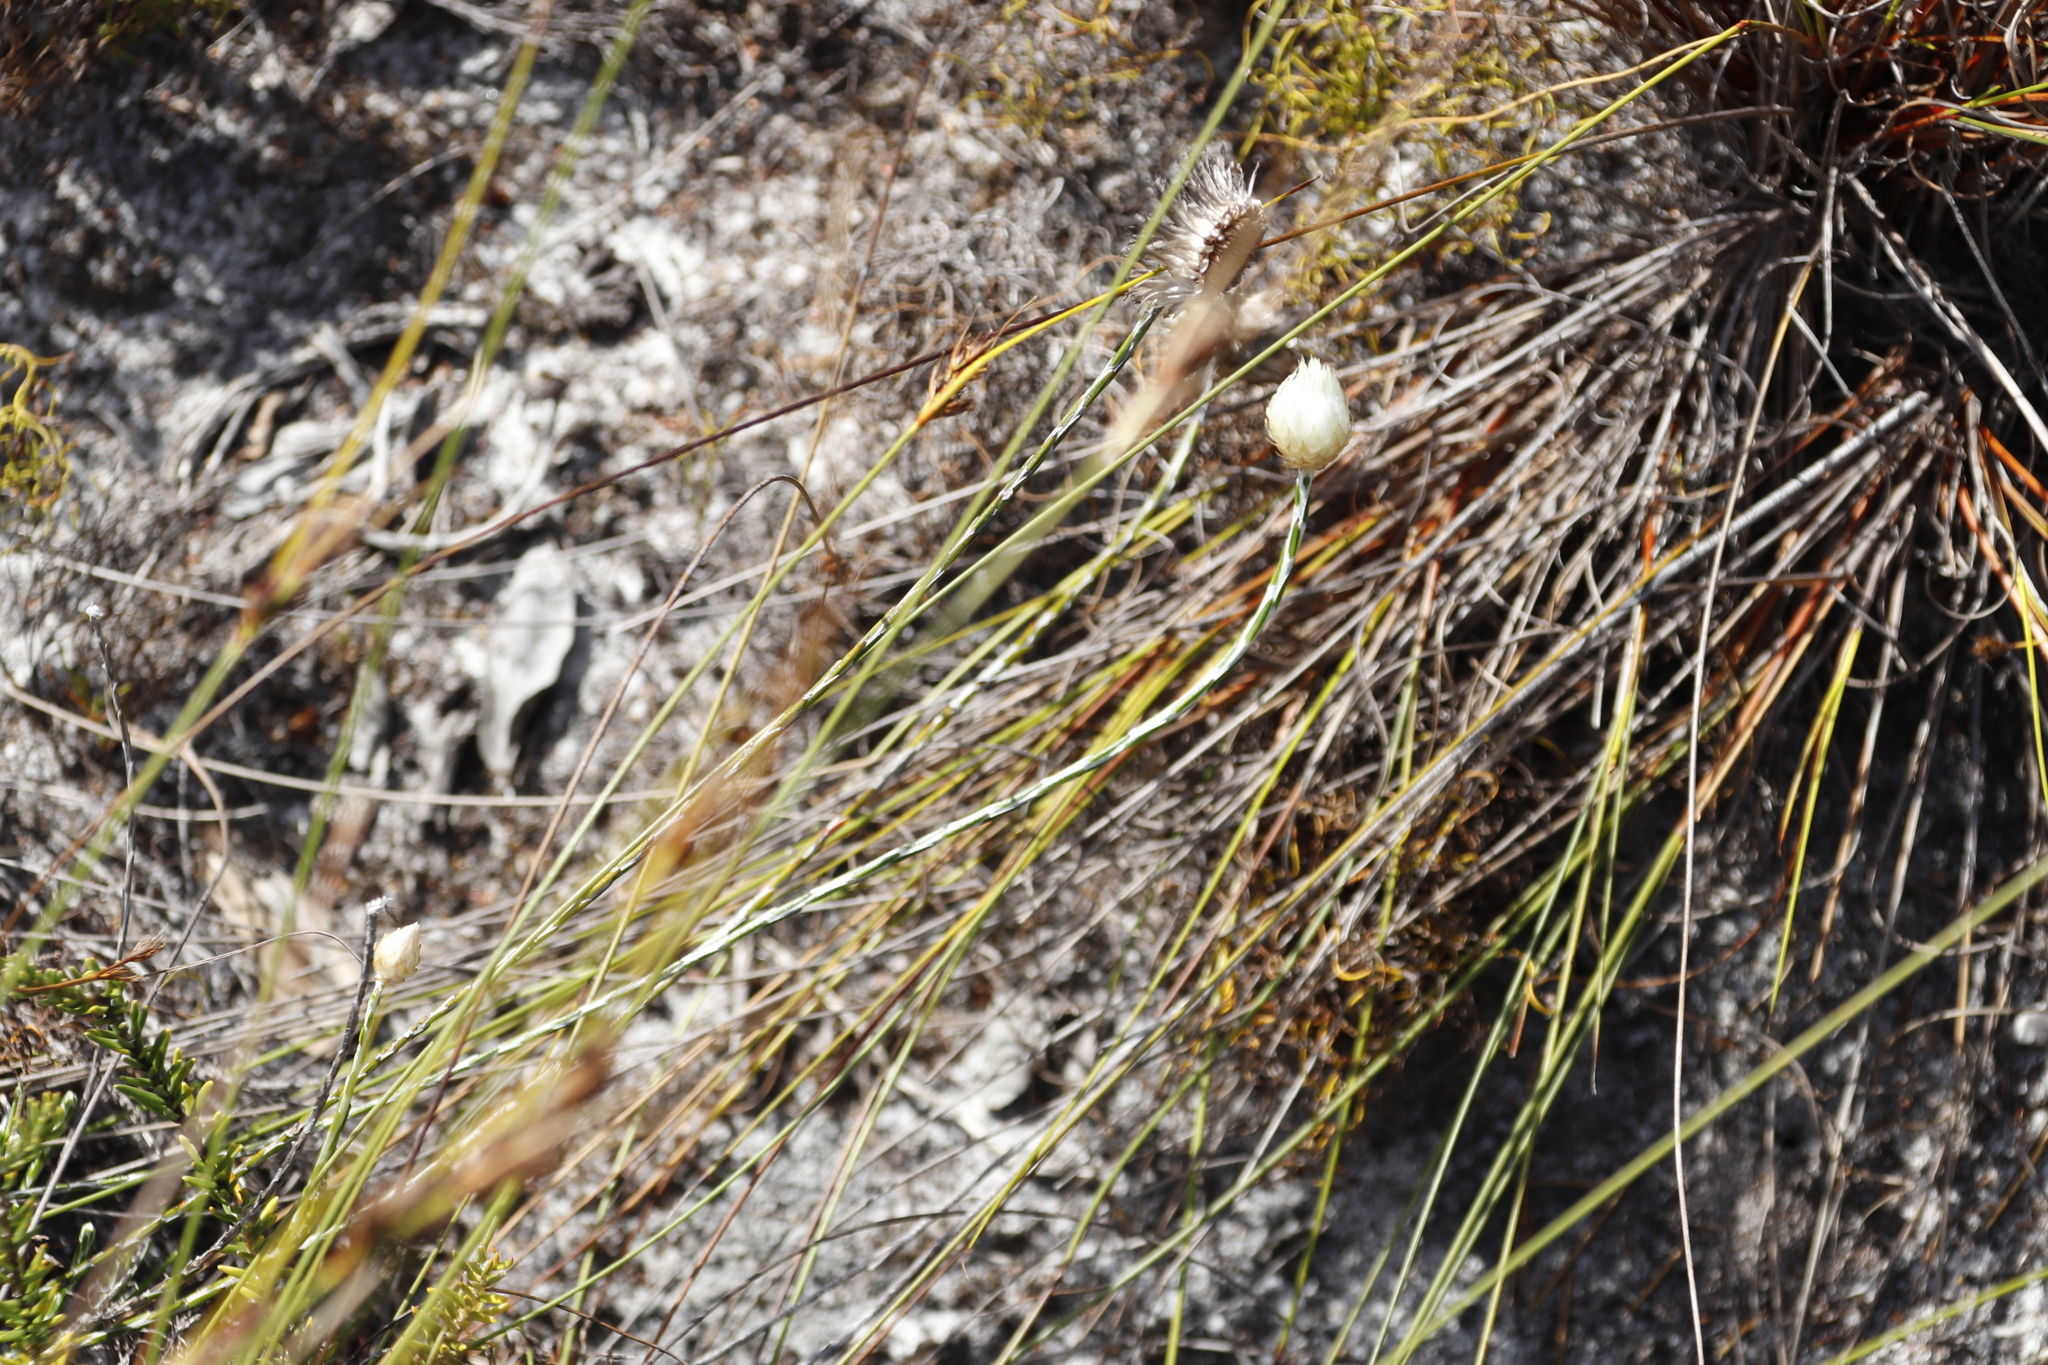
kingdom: Plantae
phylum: Tracheophyta
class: Magnoliopsida
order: Asterales
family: Asteraceae
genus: Edmondia
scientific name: Edmondia sesamoides
